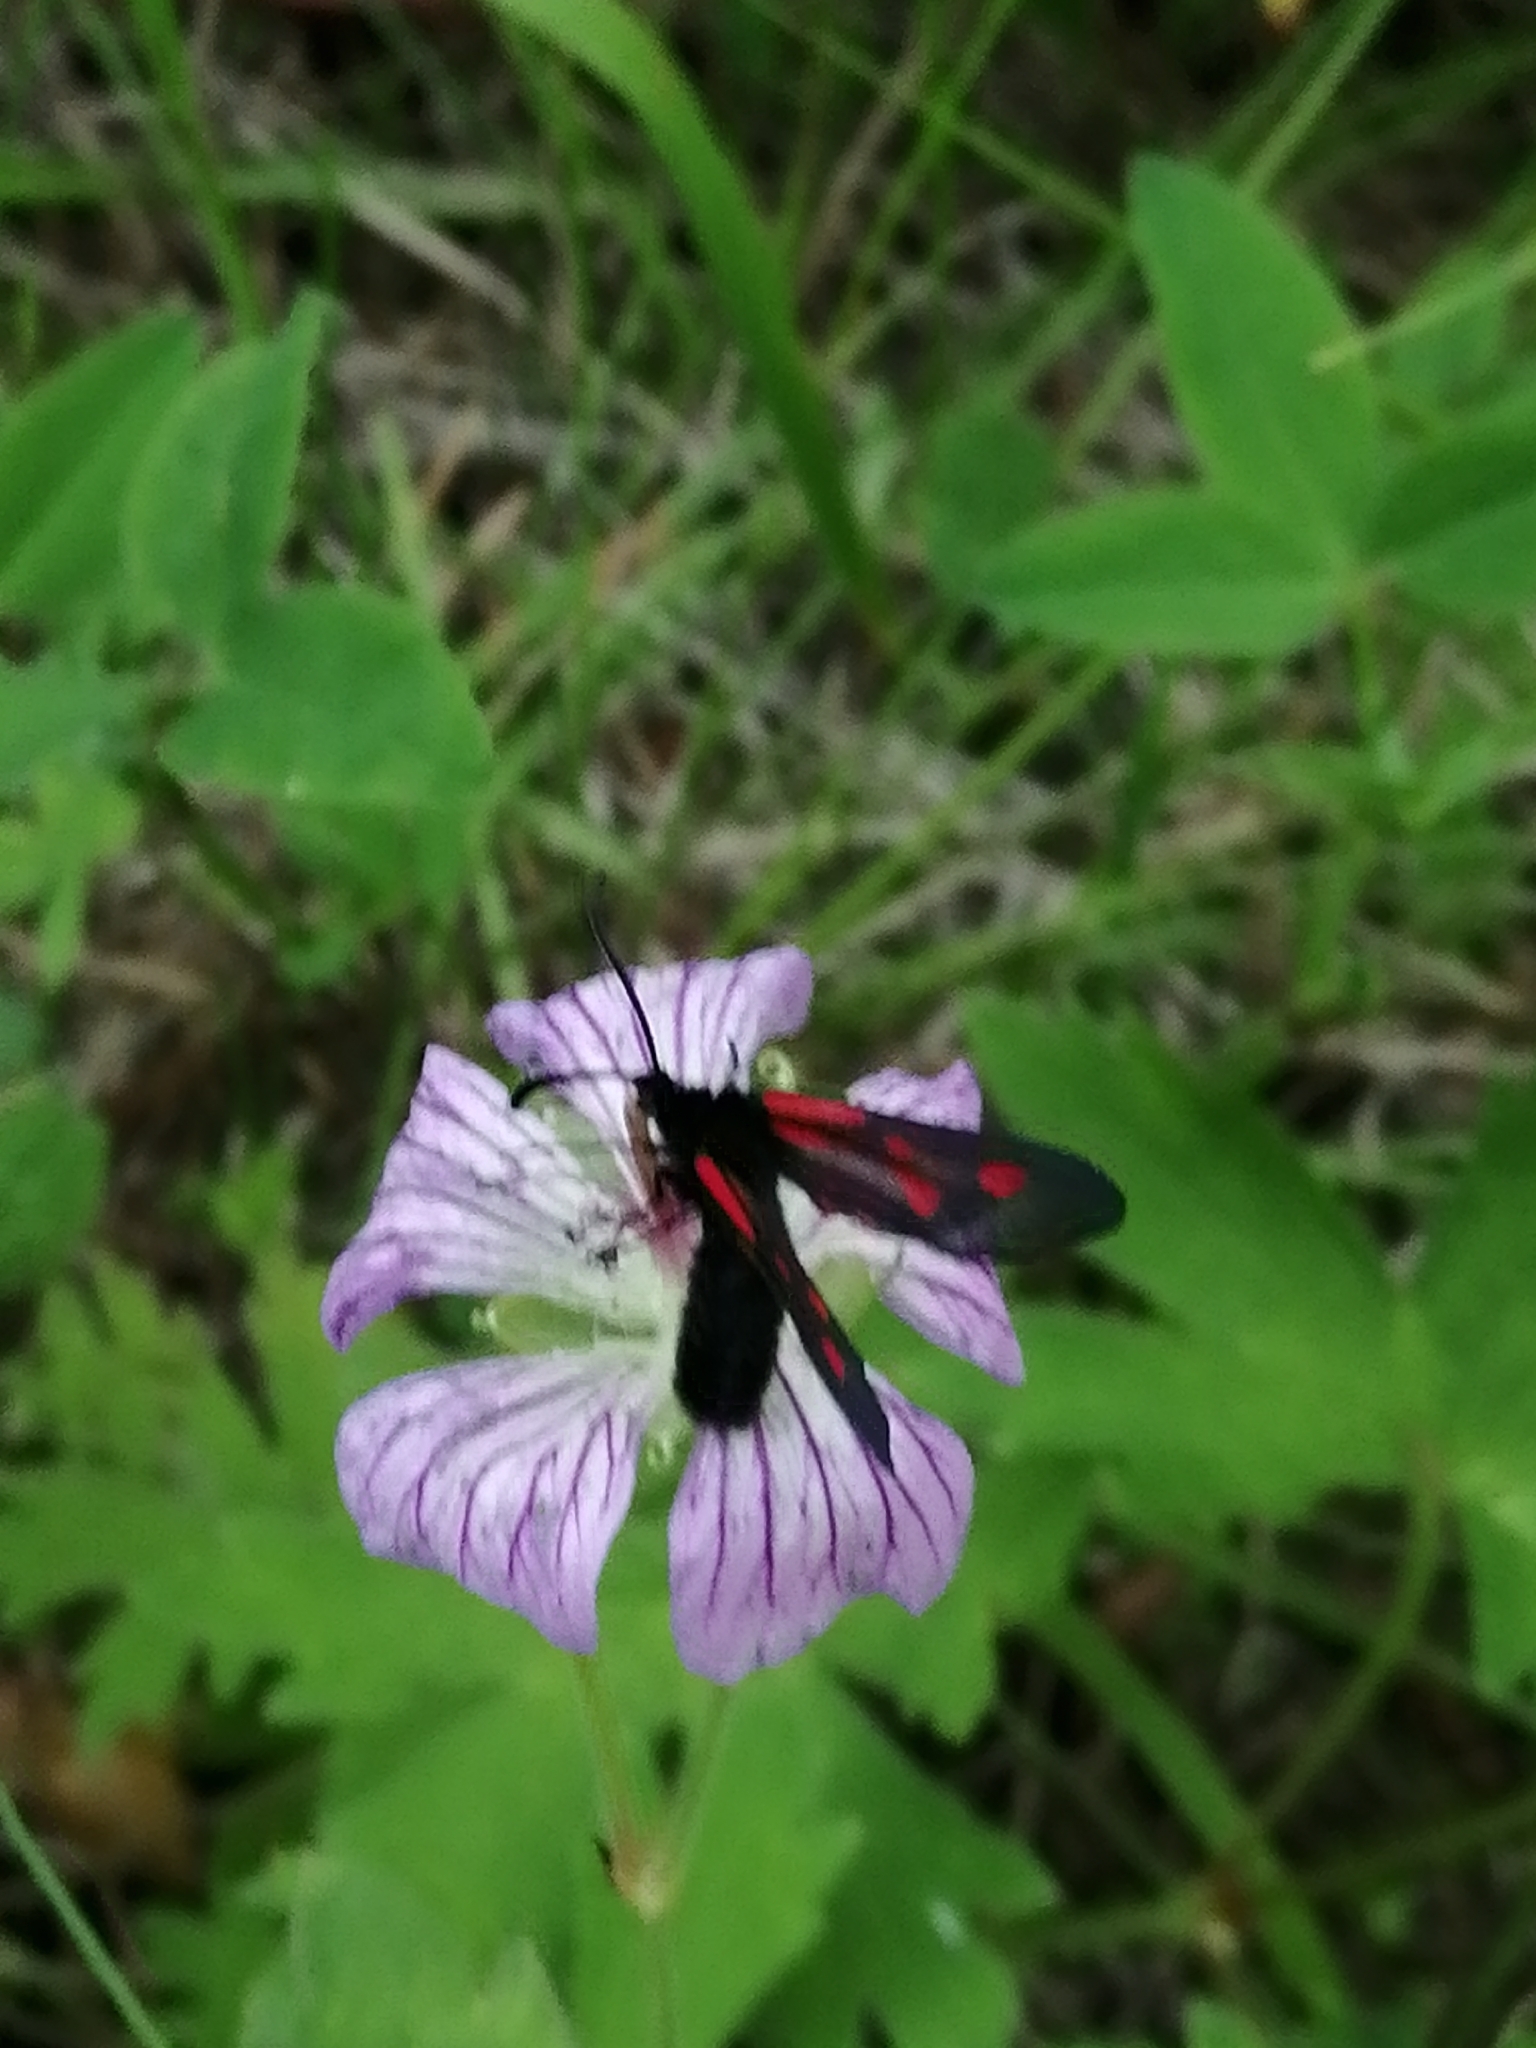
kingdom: Animalia
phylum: Arthropoda
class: Insecta
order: Lepidoptera
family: Zygaenidae
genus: Zygaena
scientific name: Zygaena osterodensis
